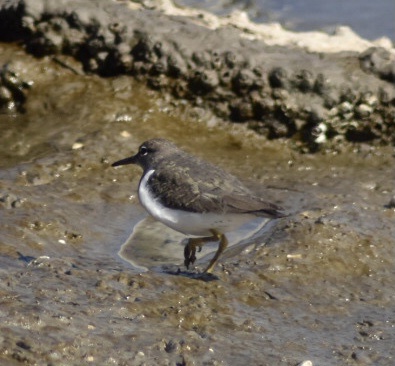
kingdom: Animalia
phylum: Chordata
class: Aves
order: Charadriiformes
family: Scolopacidae
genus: Actitis
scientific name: Actitis macularius
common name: Spotted sandpiper
